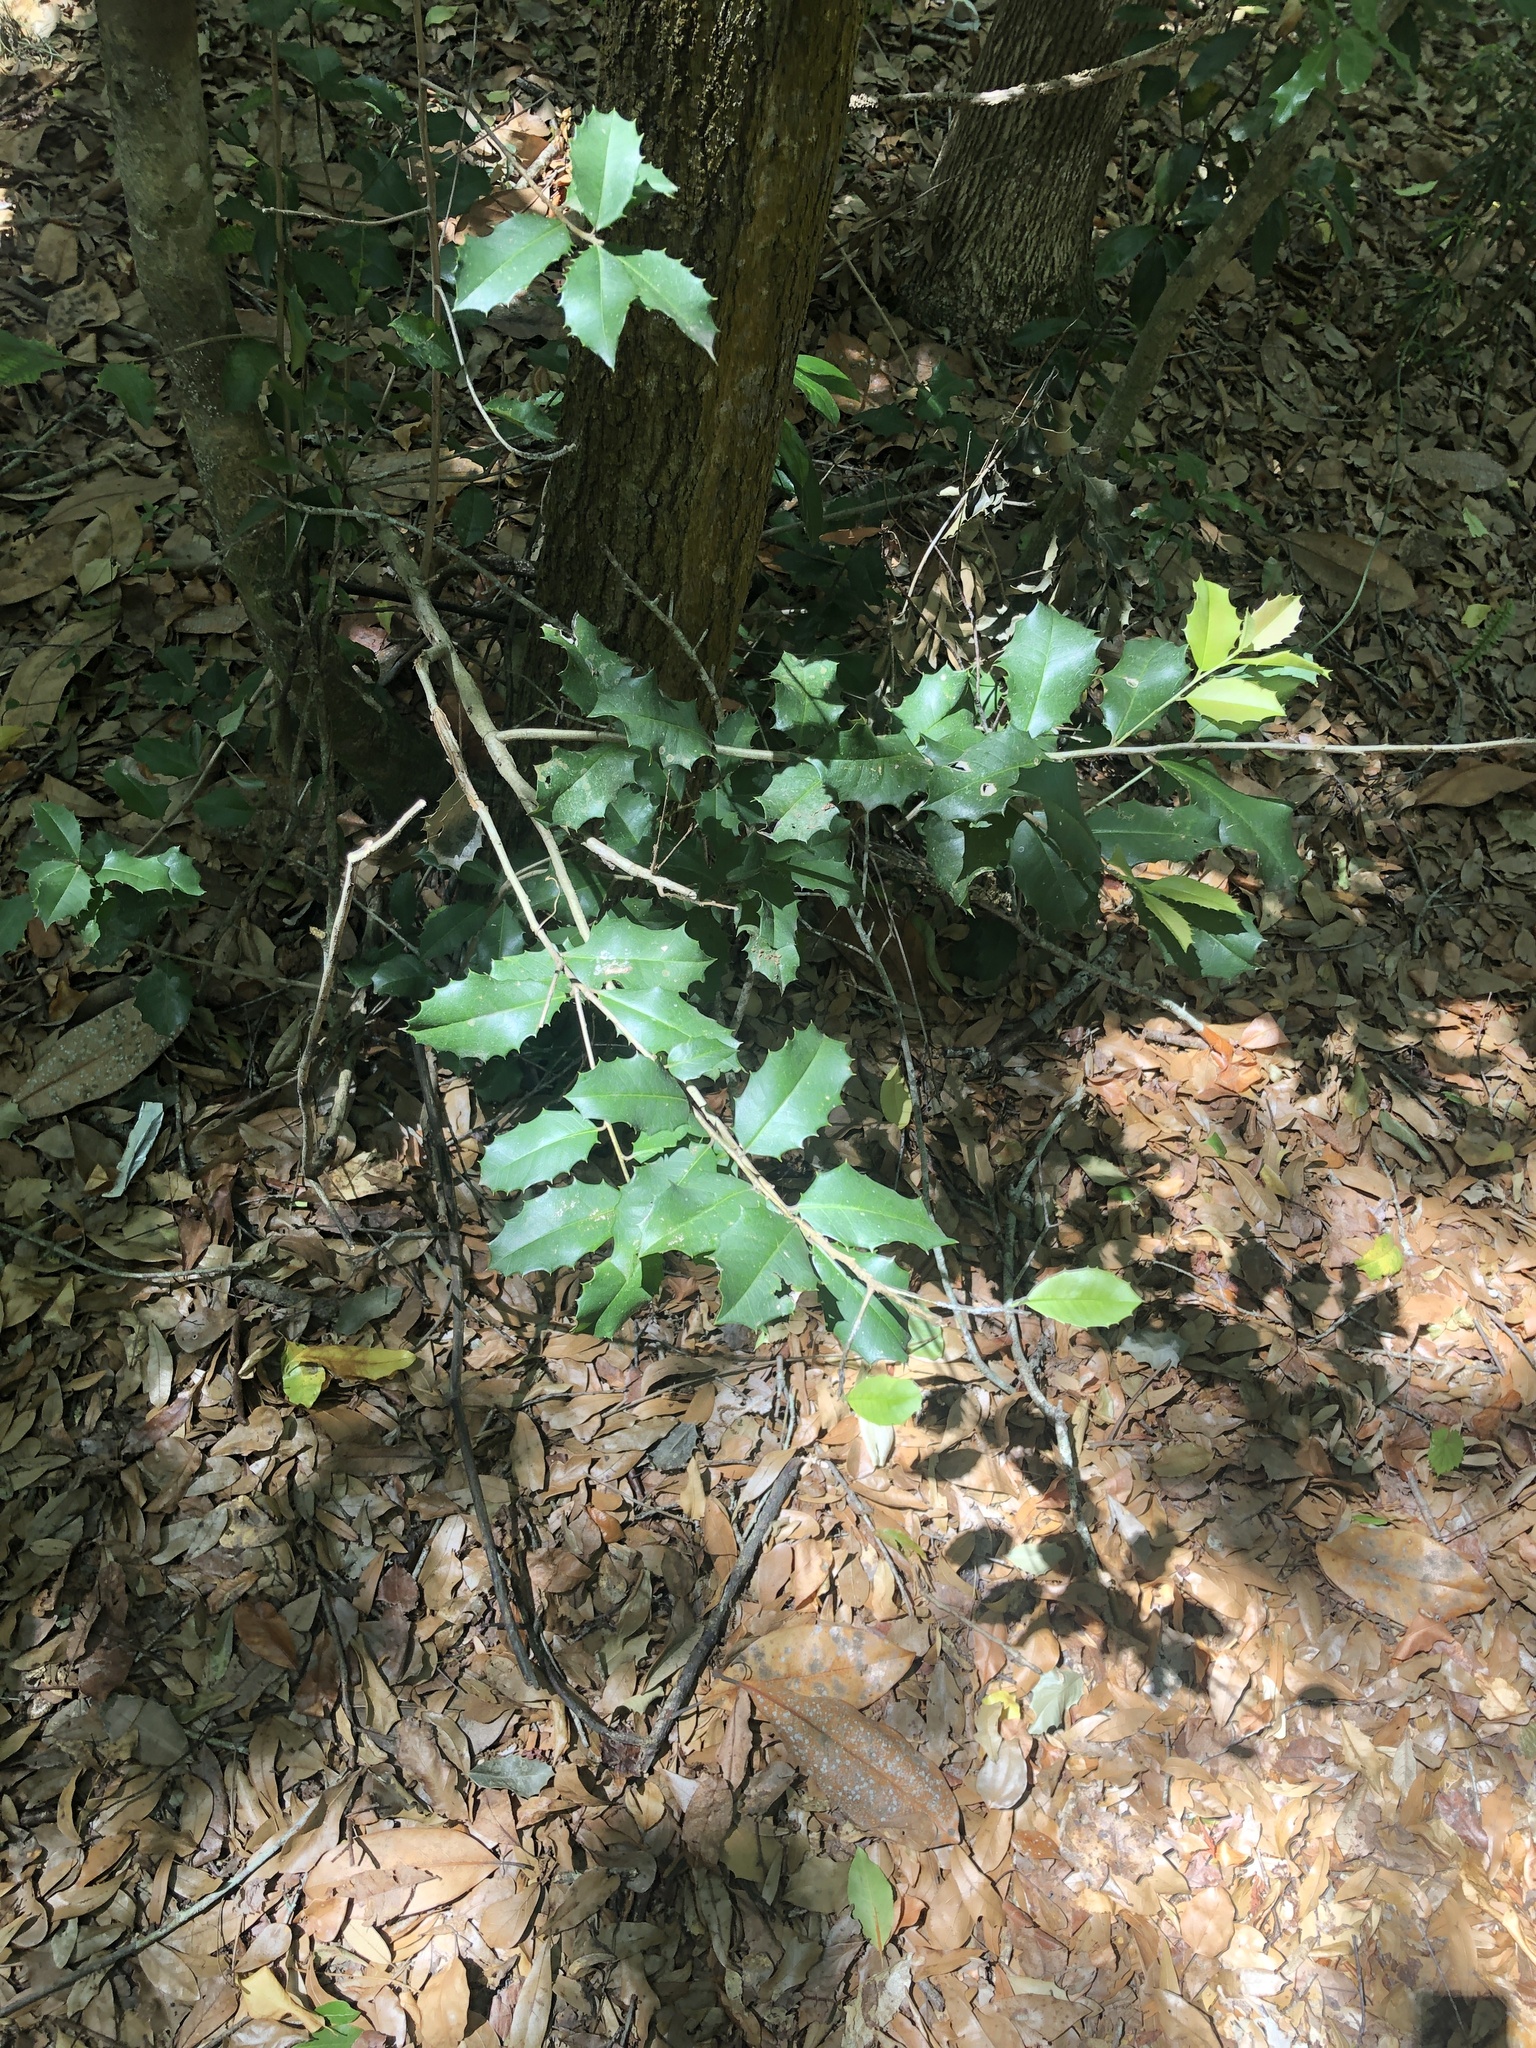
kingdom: Plantae
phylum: Tracheophyta
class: Magnoliopsida
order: Aquifoliales
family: Aquifoliaceae
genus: Ilex
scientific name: Ilex opaca
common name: American holly
